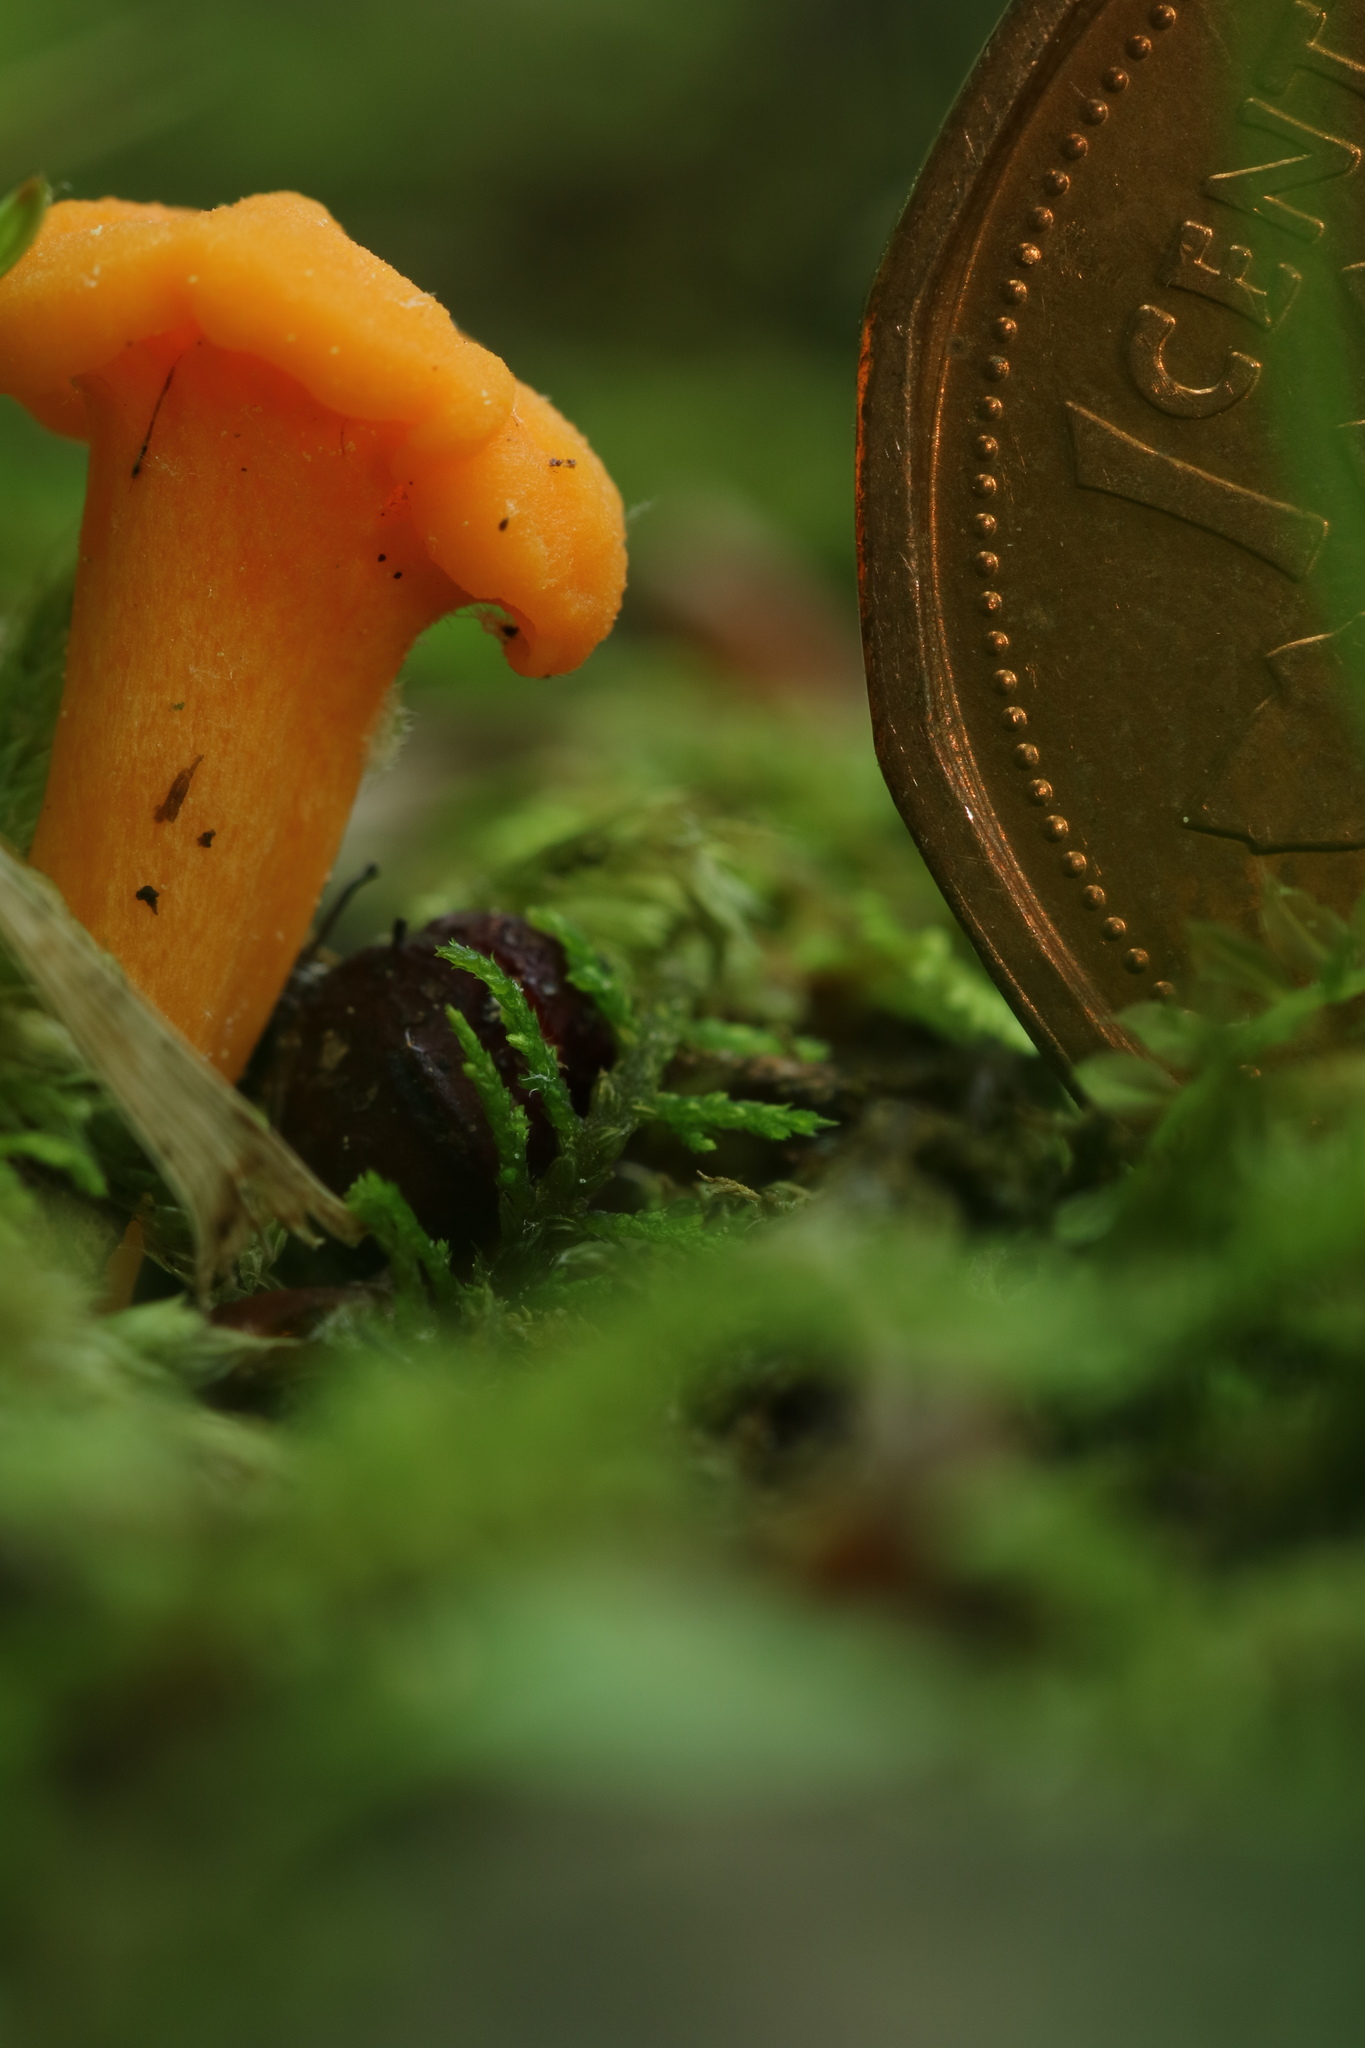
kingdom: Fungi
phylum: Basidiomycota
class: Agaricomycetes
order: Cantharellales
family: Hydnaceae
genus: Cantharellus
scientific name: Cantharellus minor
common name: Small chanterelle
